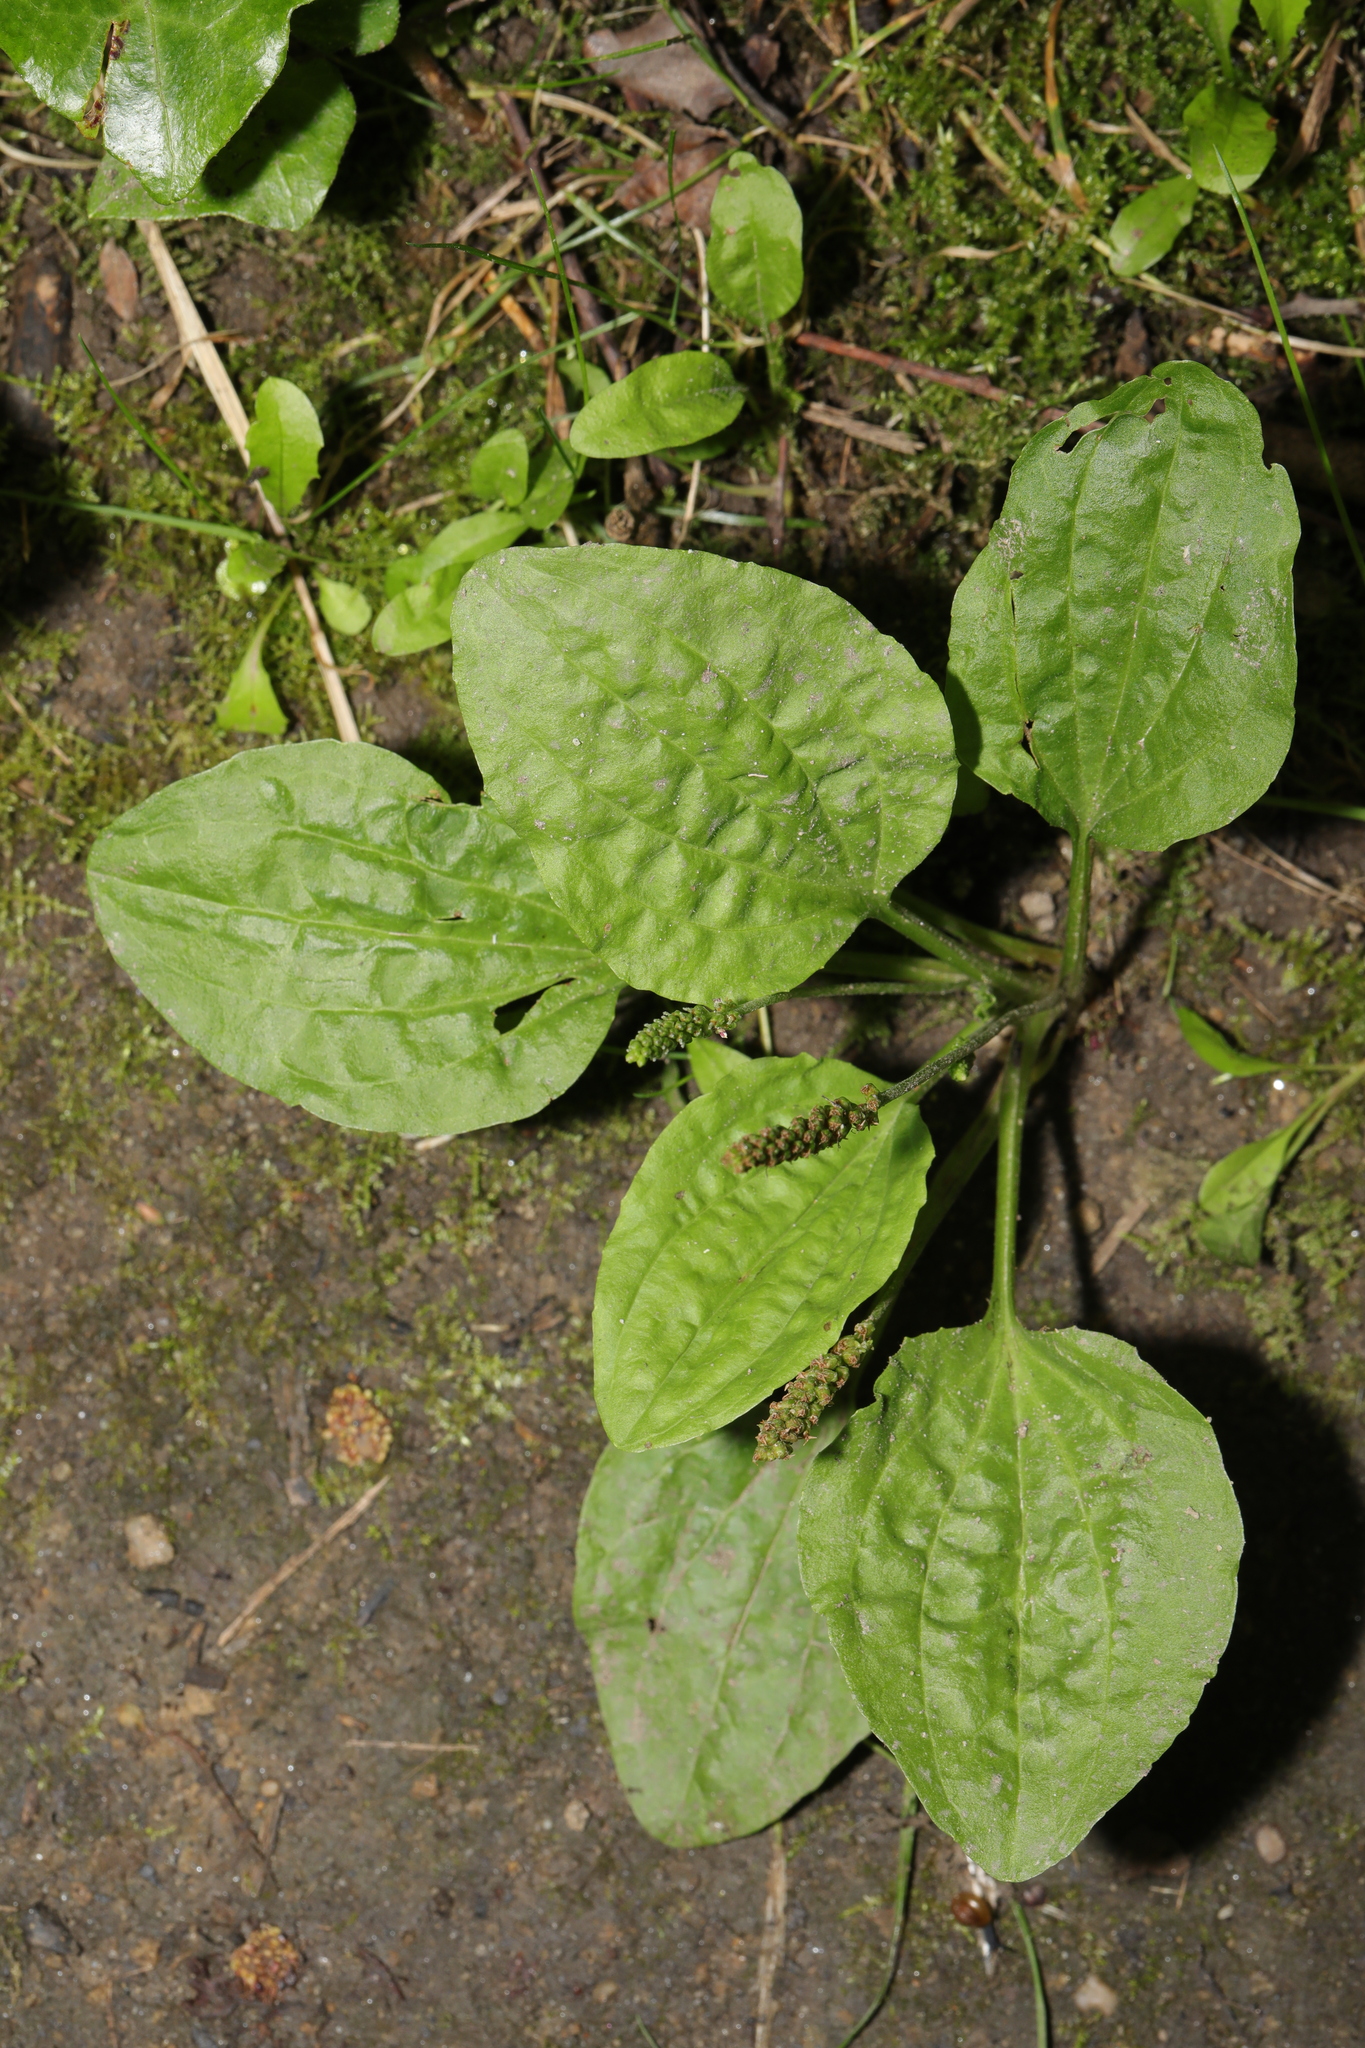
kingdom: Plantae
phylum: Tracheophyta
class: Magnoliopsida
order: Lamiales
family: Plantaginaceae
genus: Plantago
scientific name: Plantago major
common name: Common plantain
